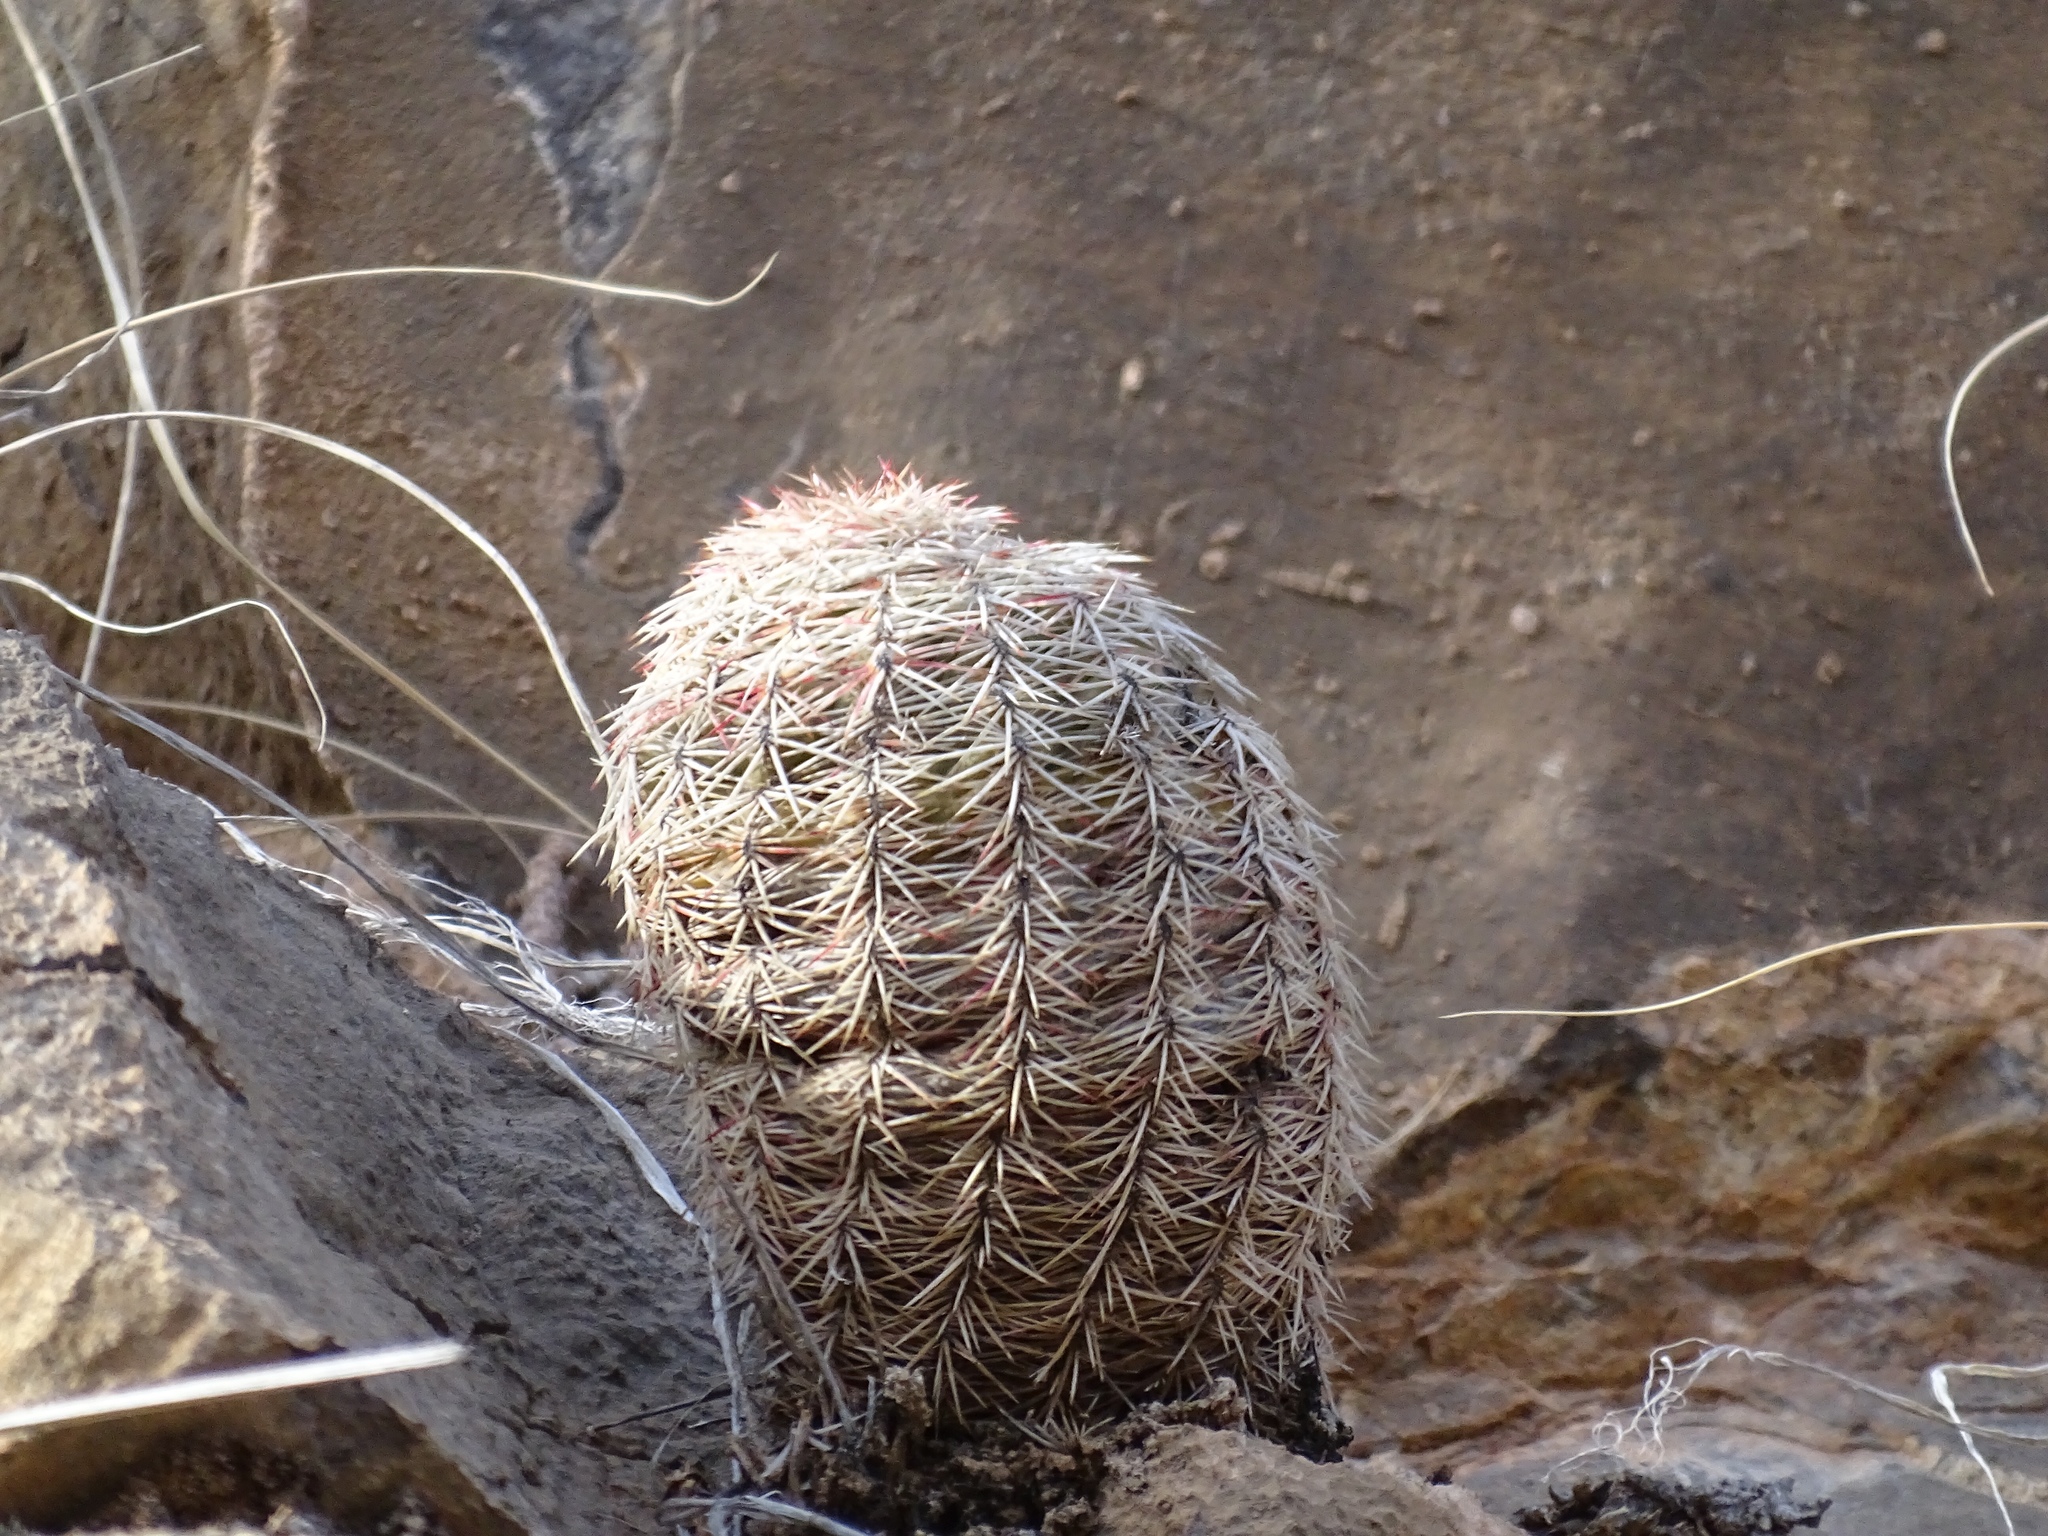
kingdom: Plantae
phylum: Tracheophyta
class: Magnoliopsida
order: Caryophyllales
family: Cactaceae
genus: Echinocereus
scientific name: Echinocereus viridiflorus
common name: Nylon hedgehog cactus
